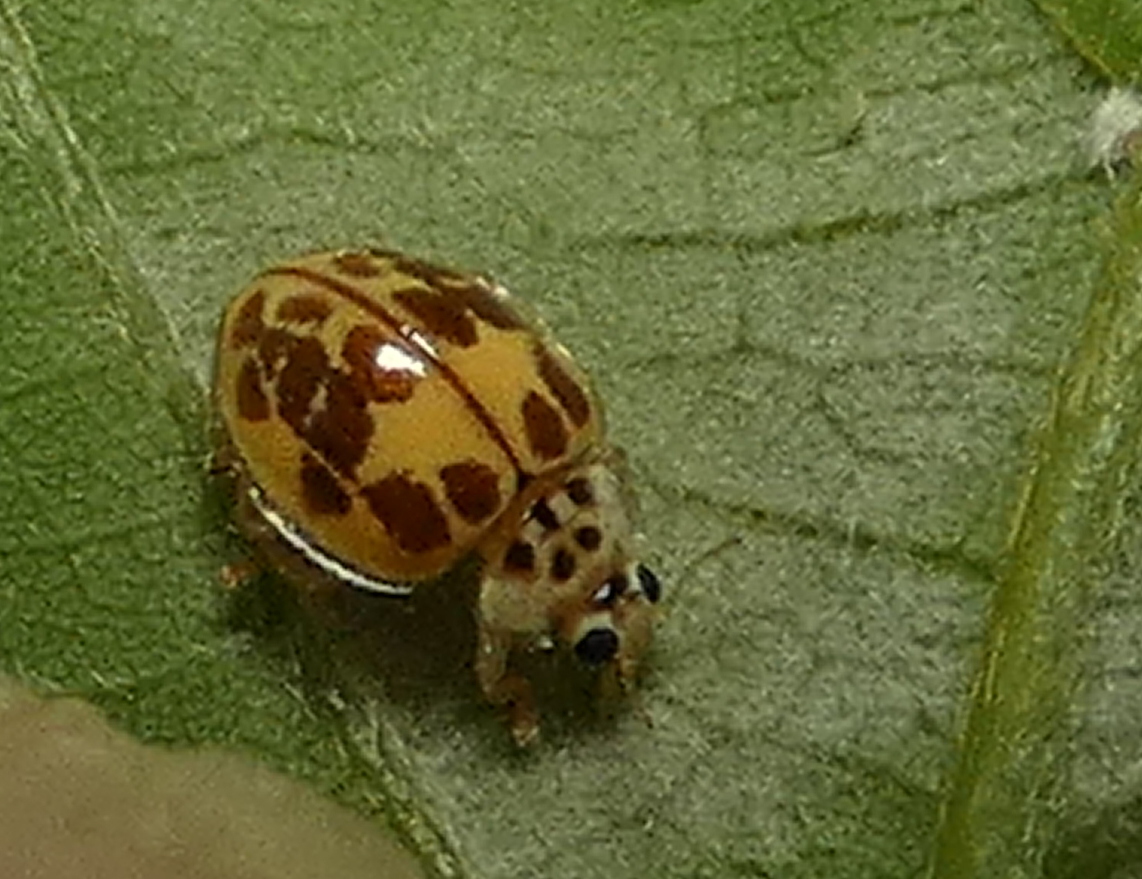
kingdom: Animalia
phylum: Arthropoda
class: Insecta
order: Coleoptera
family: Coccinellidae
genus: Psyllobora
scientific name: Psyllobora confluens
